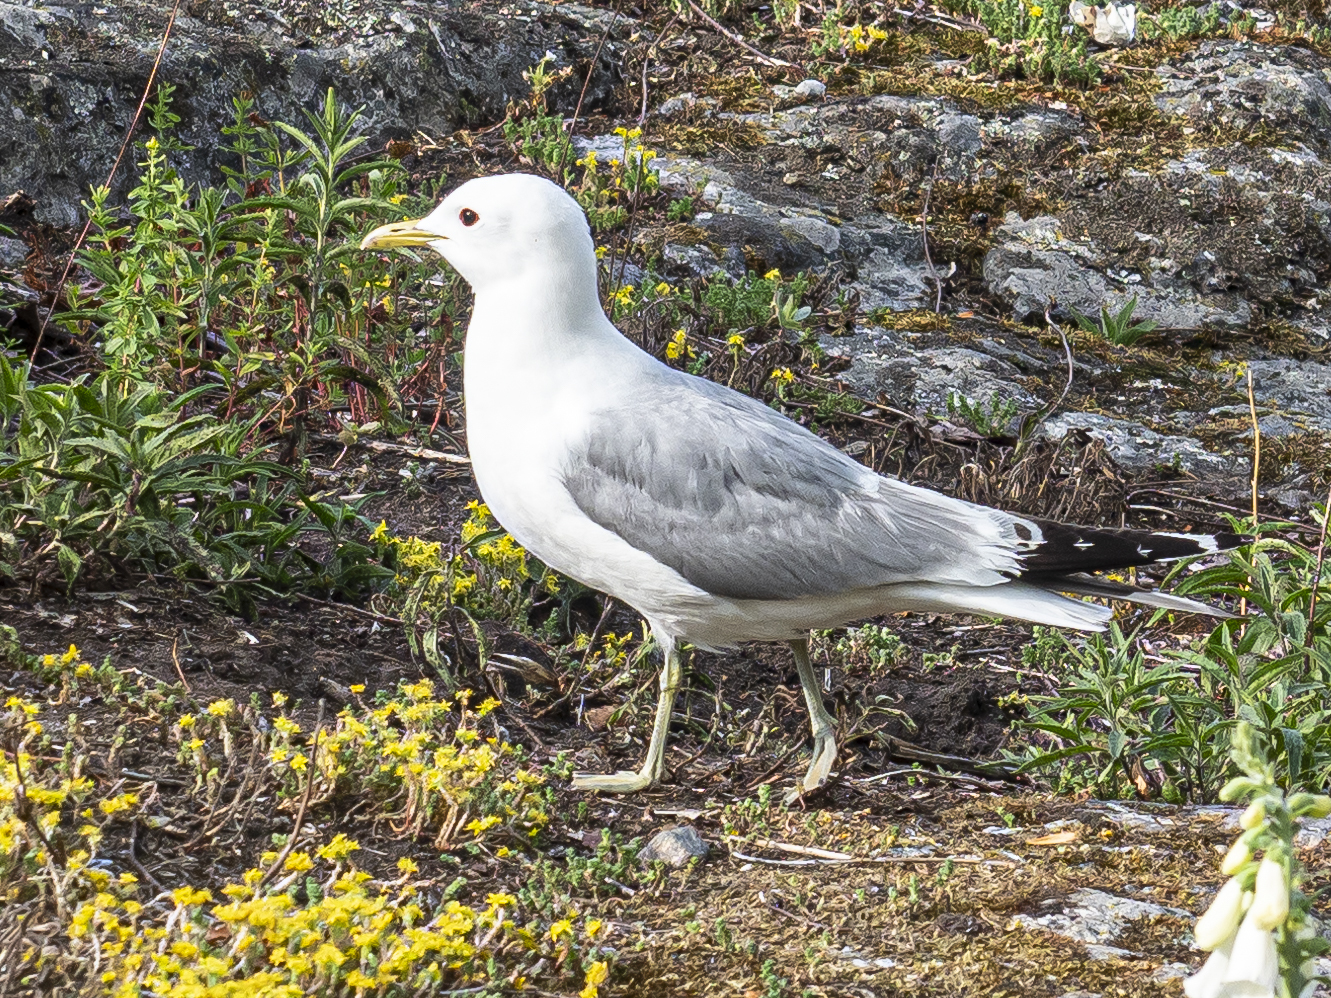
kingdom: Animalia
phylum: Chordata
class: Aves
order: Charadriiformes
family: Laridae
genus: Larus
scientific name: Larus canus
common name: Mew gull
